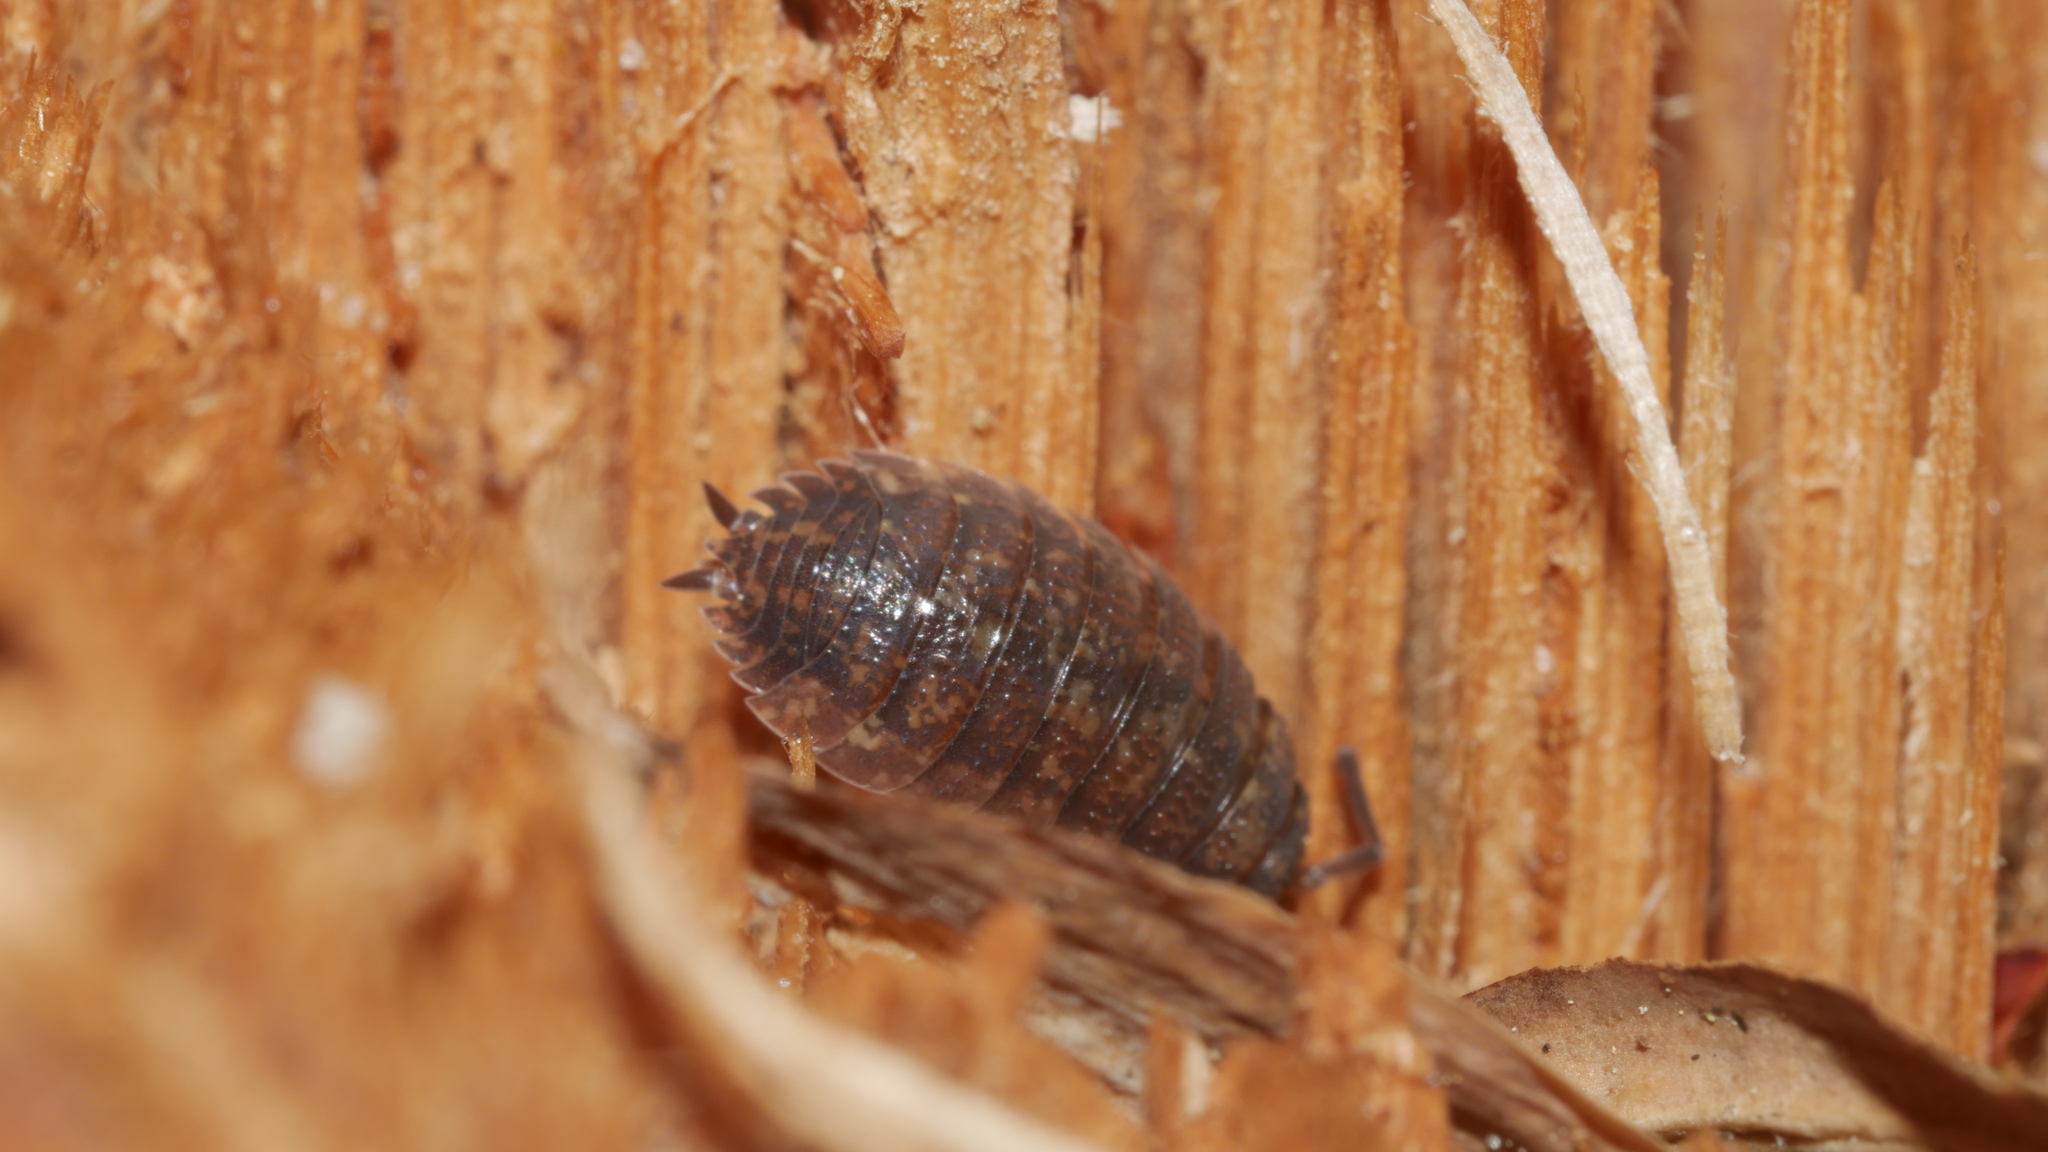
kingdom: Animalia
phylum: Arthropoda
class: Malacostraca
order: Isopoda
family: Porcellionidae
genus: Porcellio
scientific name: Porcellio scaber
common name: Common rough woodlouse
